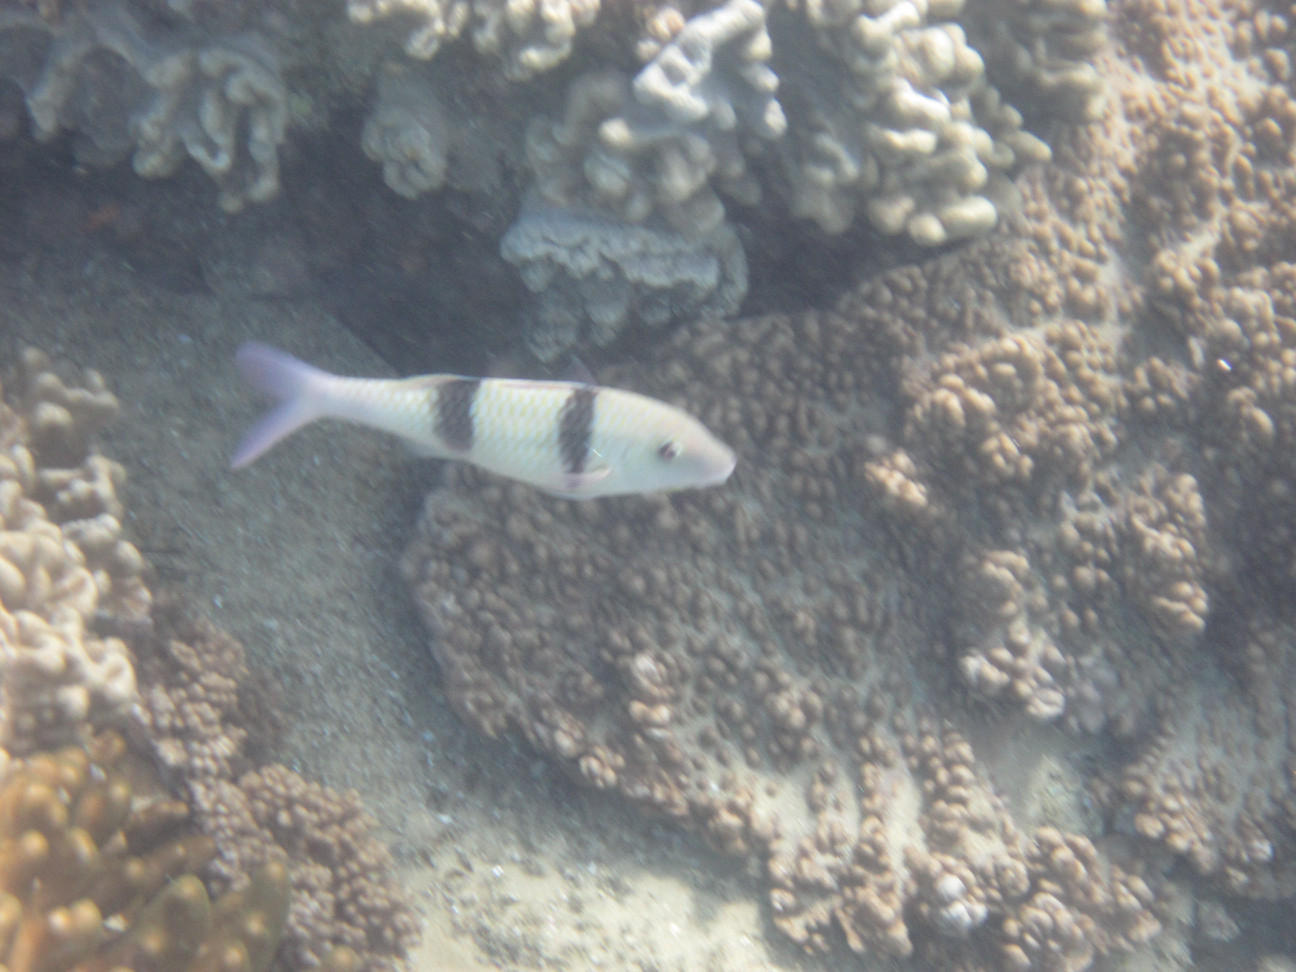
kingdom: Animalia
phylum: Chordata
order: Perciformes
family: Mullidae
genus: Parupeneus
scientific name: Parupeneus trifasciatus
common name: Doublebar goatfish
